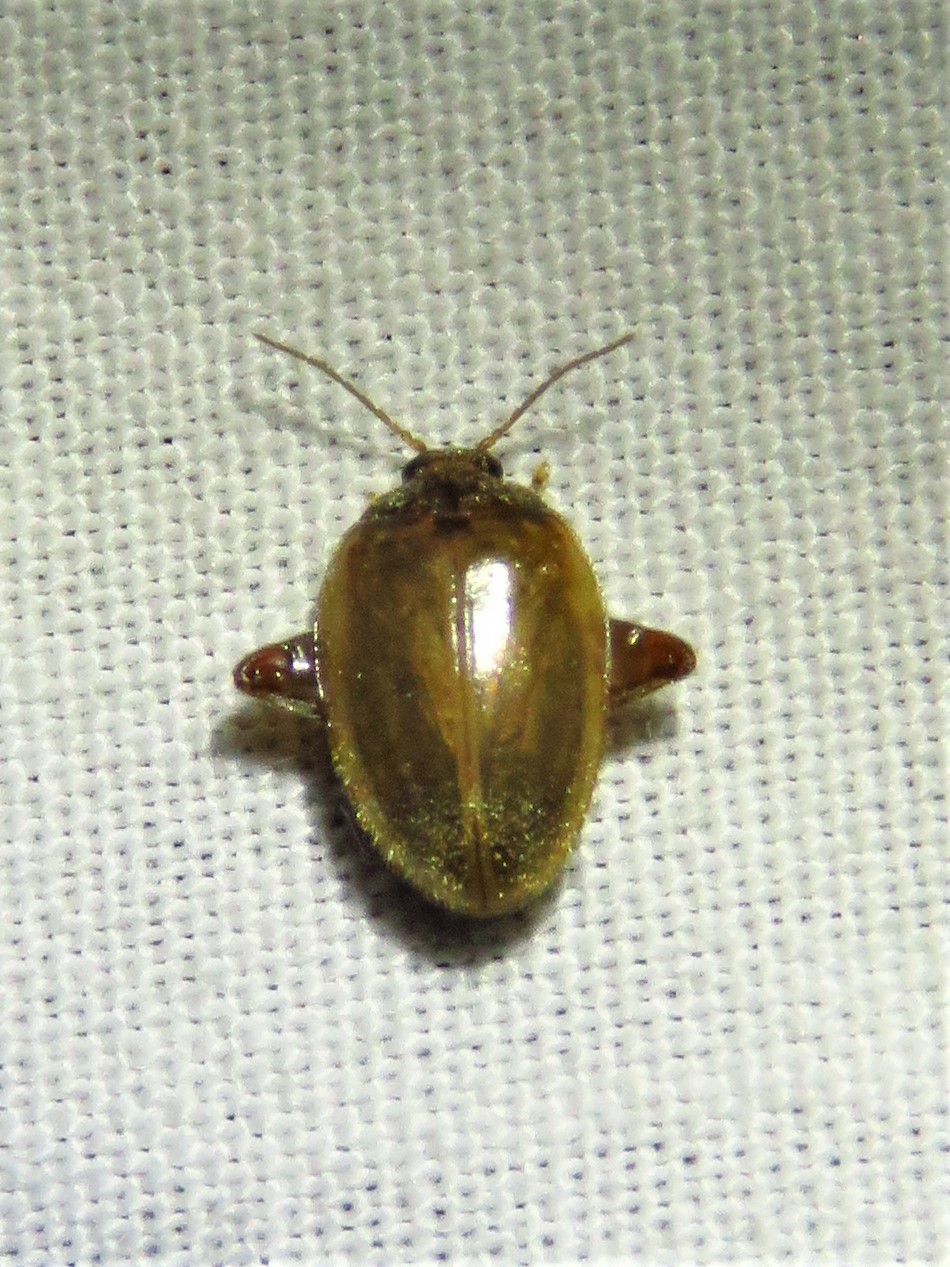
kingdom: Animalia
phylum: Arthropoda
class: Insecta
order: Coleoptera
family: Scirtidae
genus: Ora
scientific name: Ora texana
